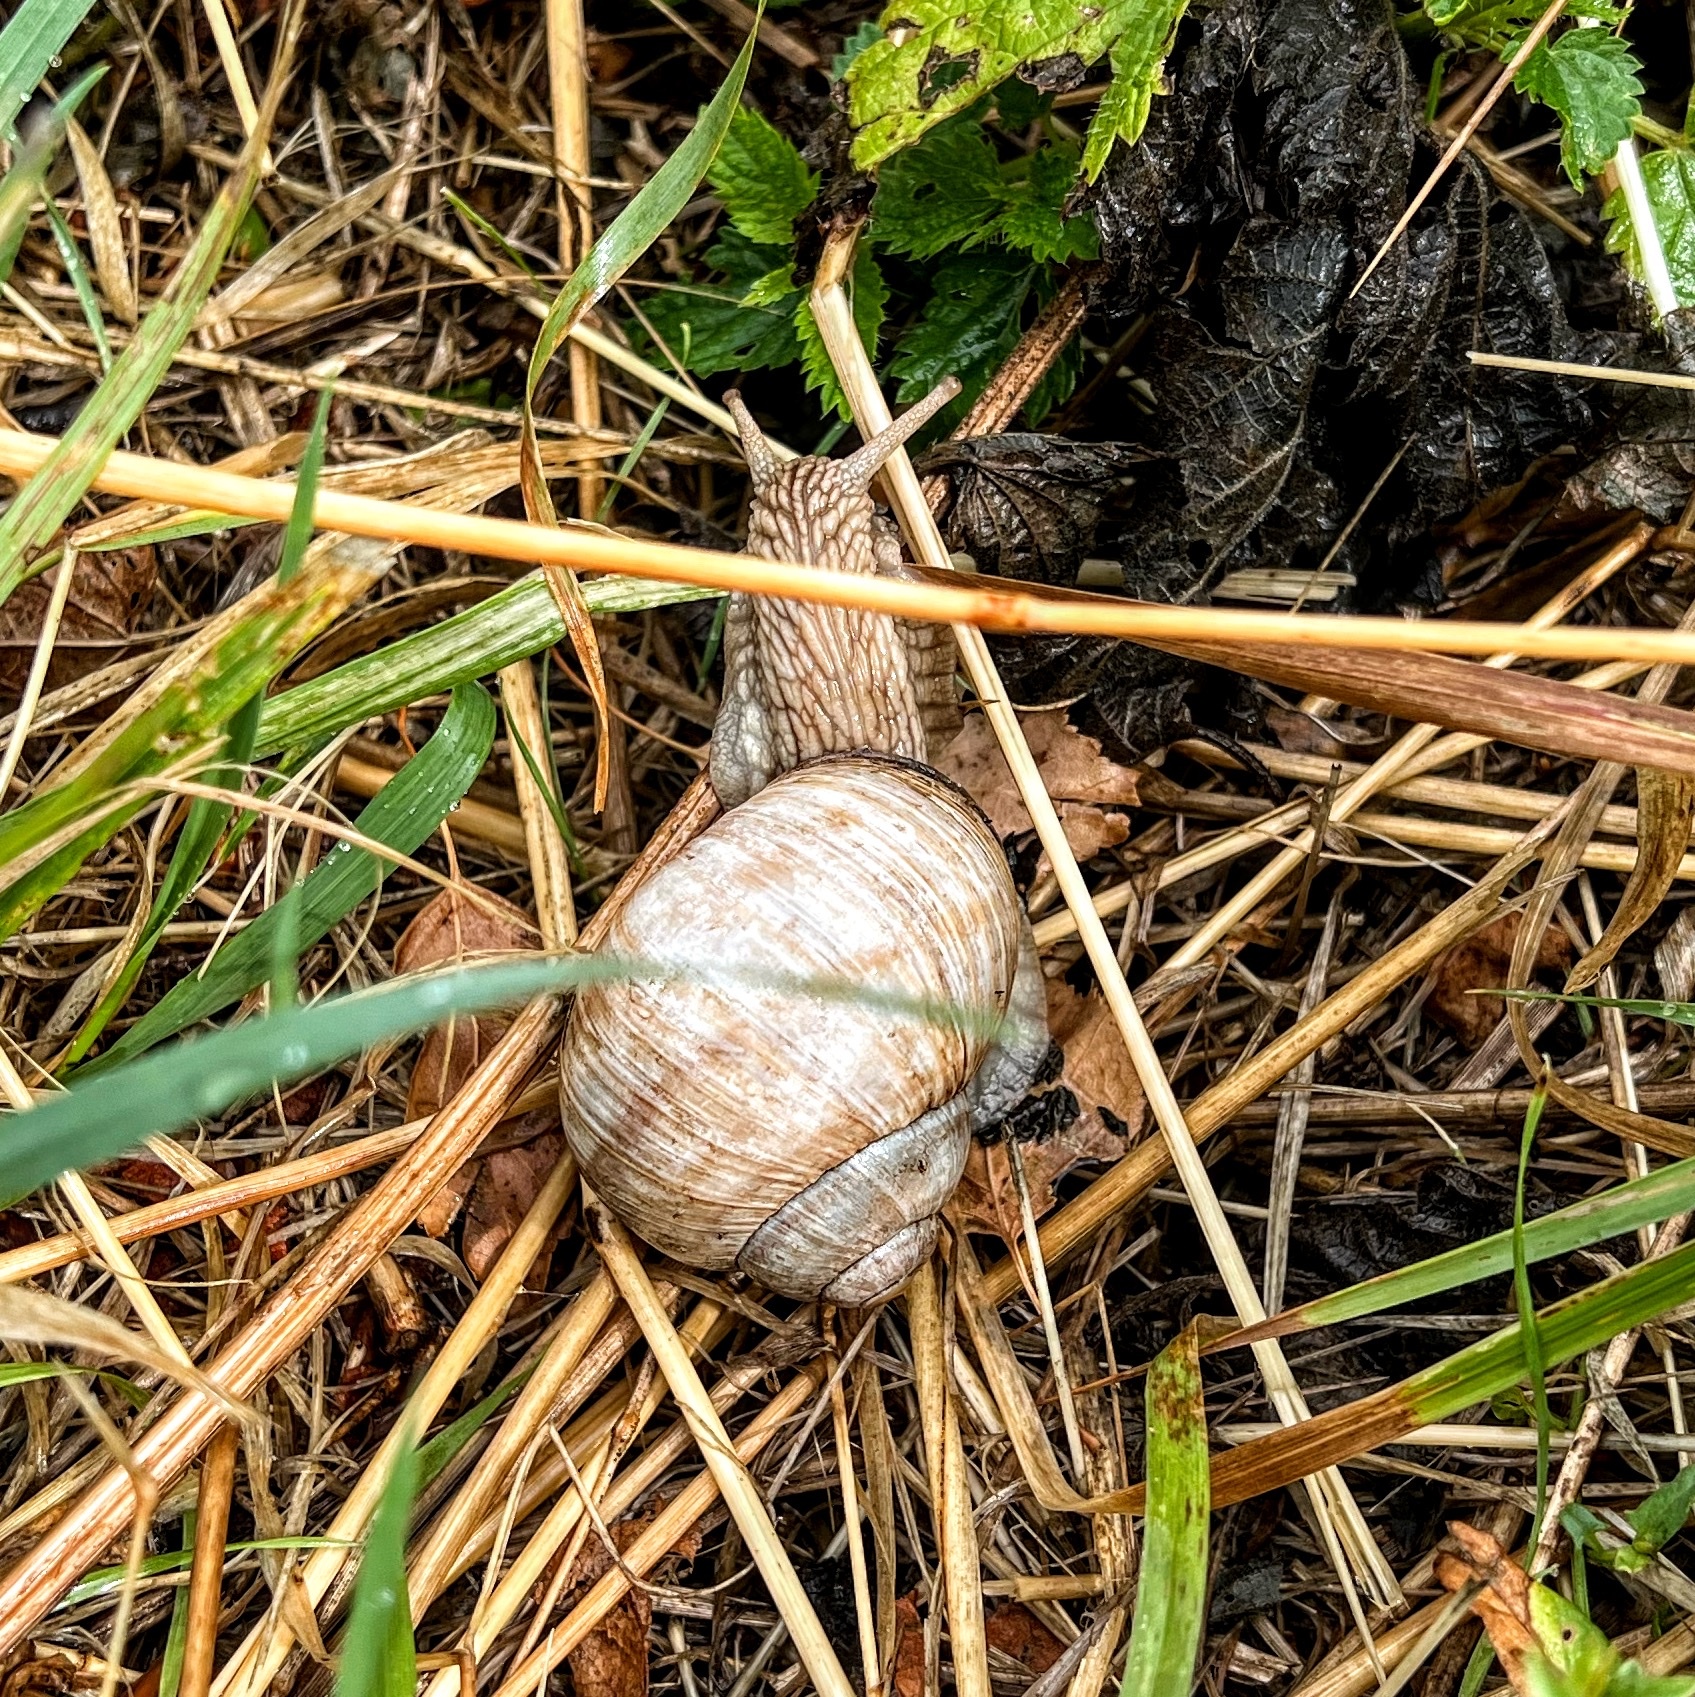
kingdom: Animalia
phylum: Mollusca
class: Gastropoda
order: Stylommatophora
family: Helicidae
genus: Helix
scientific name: Helix pomatia
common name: Roman snail
